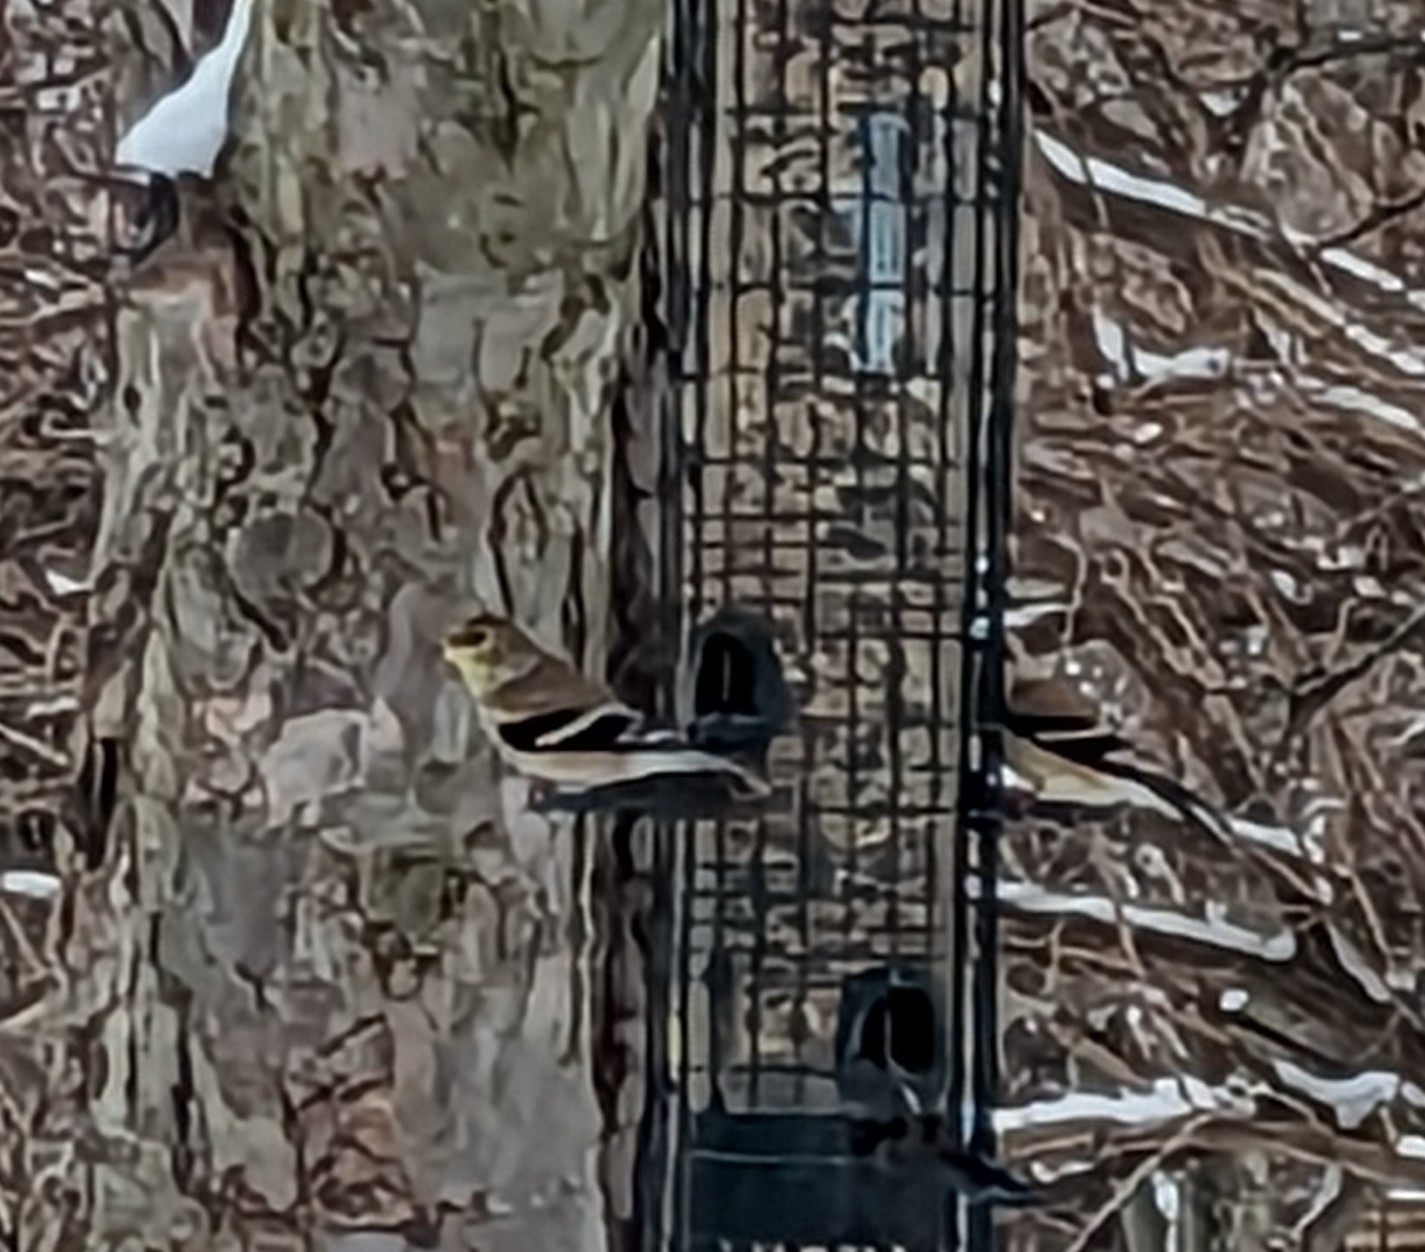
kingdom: Animalia
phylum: Chordata
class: Aves
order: Passeriformes
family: Fringillidae
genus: Spinus
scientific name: Spinus tristis
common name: American goldfinch
